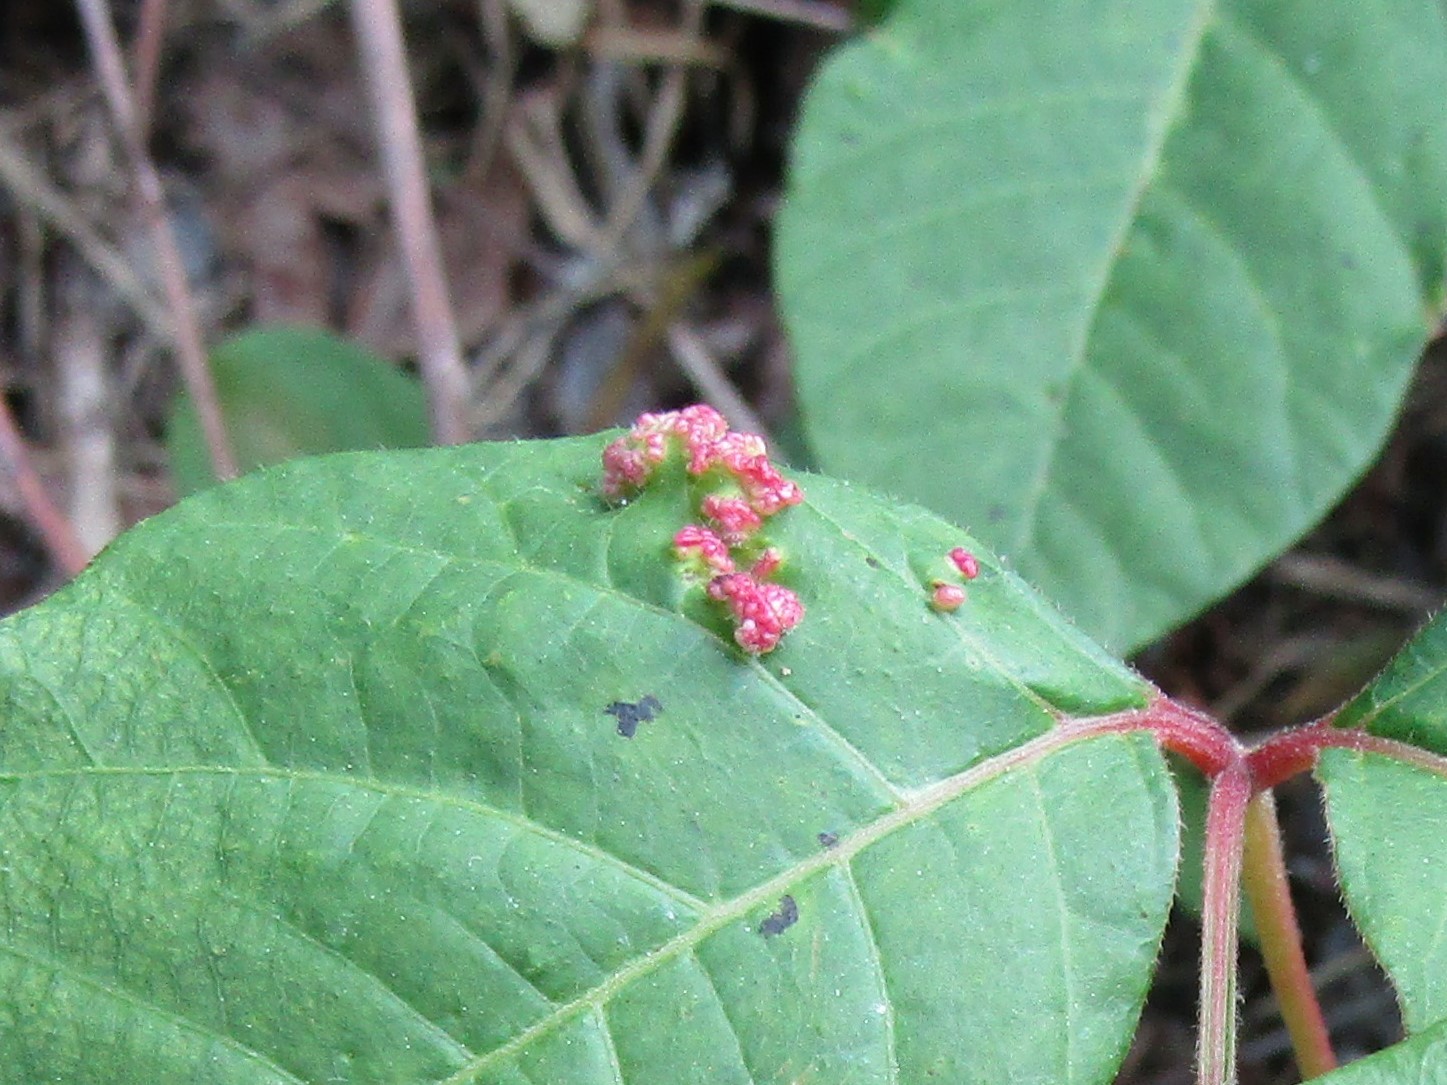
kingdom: Animalia
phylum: Arthropoda
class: Arachnida
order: Trombidiformes
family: Eriophyidae
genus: Aculops
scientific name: Aculops
